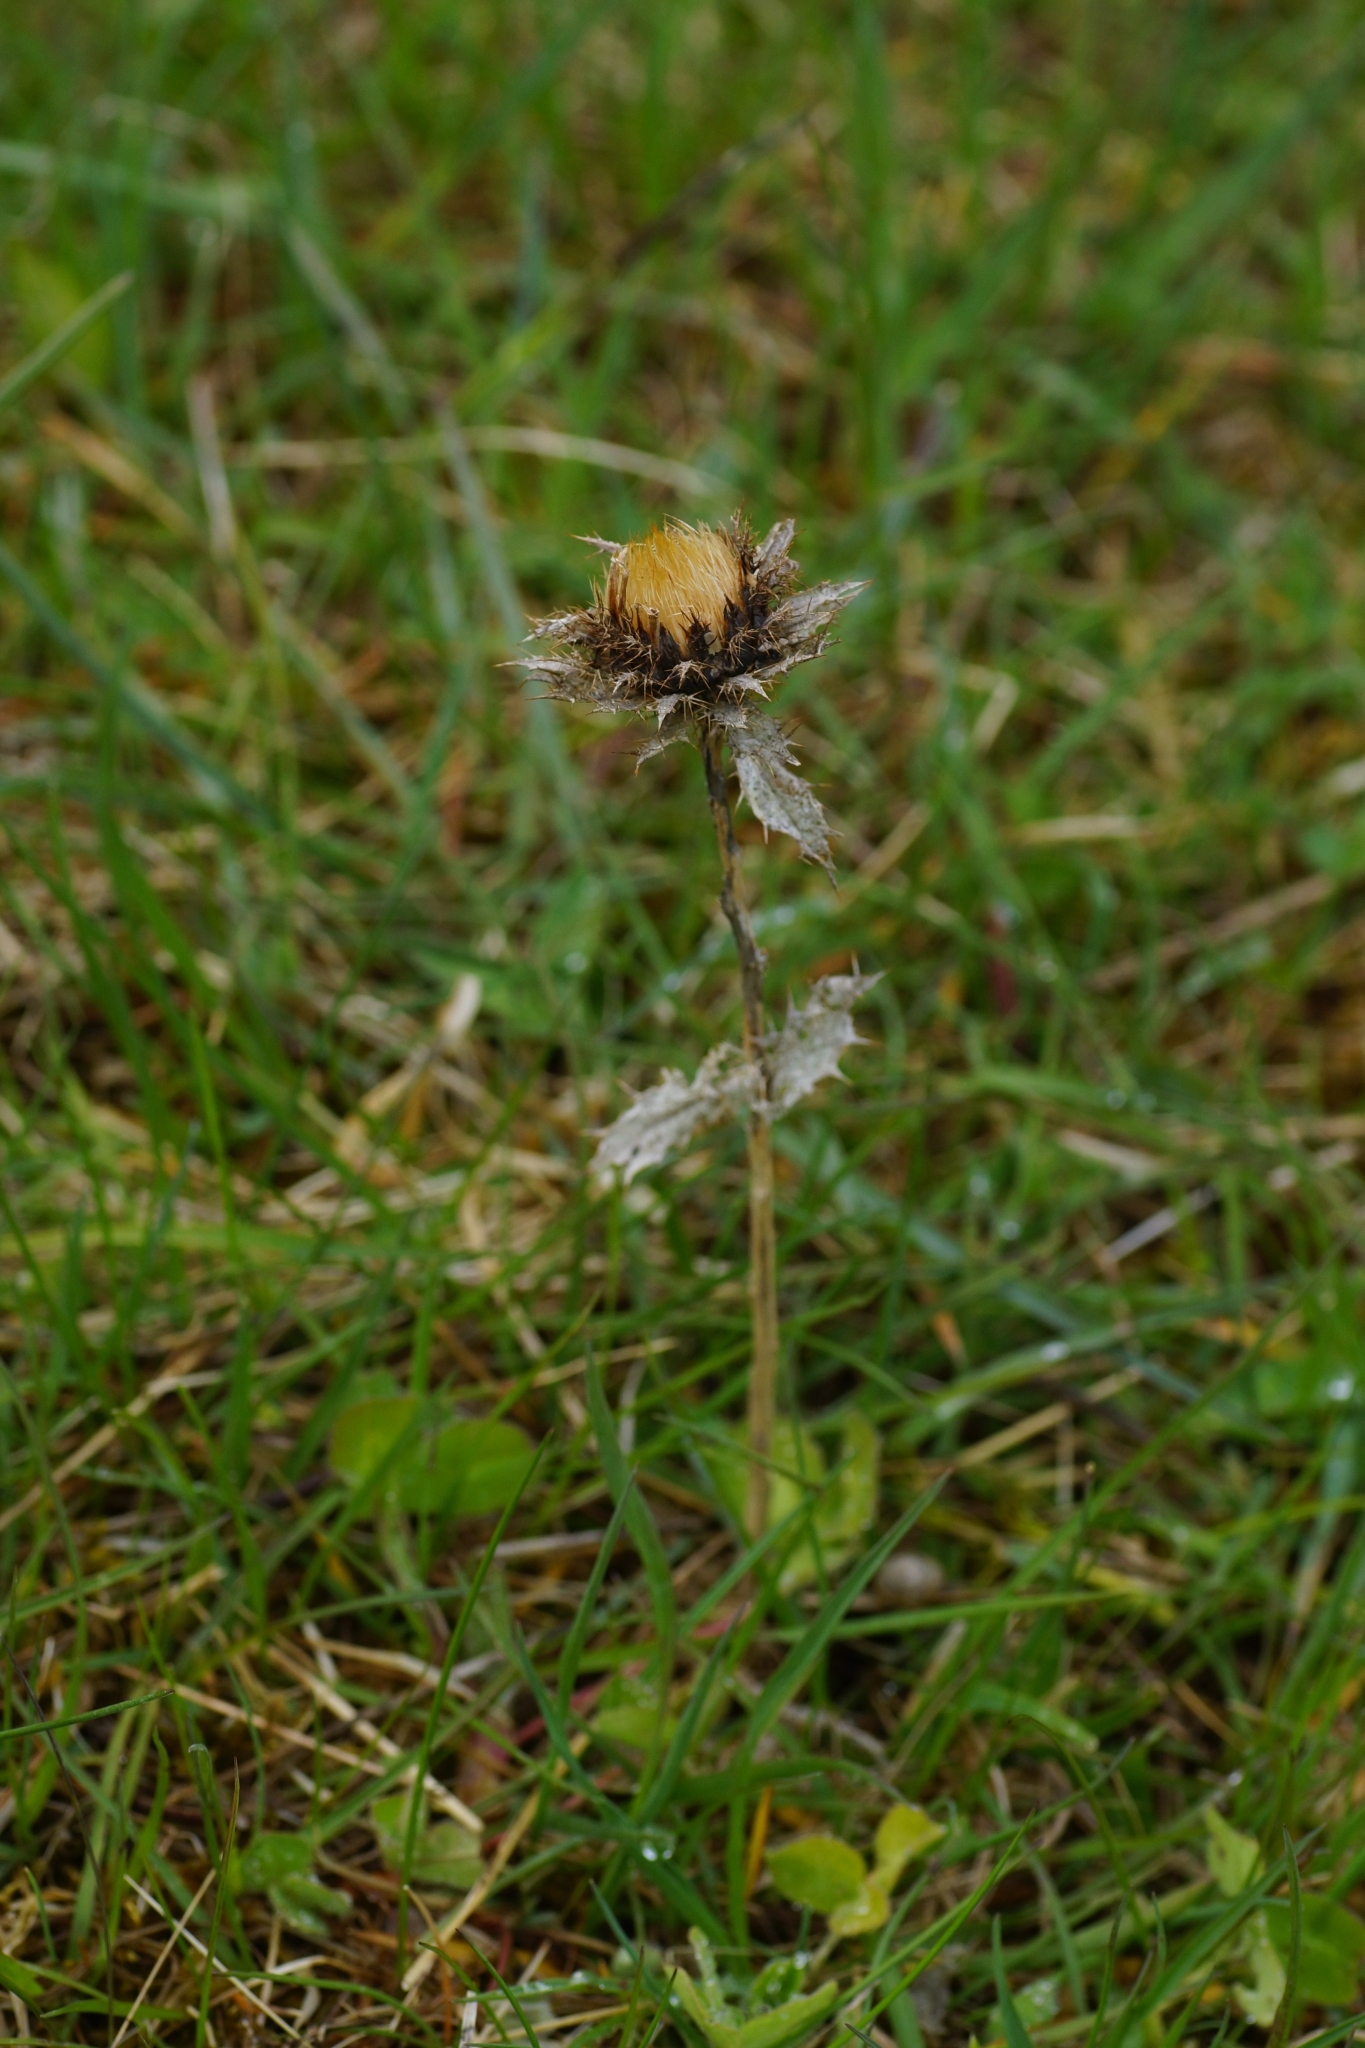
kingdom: Plantae
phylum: Tracheophyta
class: Magnoliopsida
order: Asterales
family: Asteraceae
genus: Carlina
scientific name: Carlina vulgaris
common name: Carline thistle
